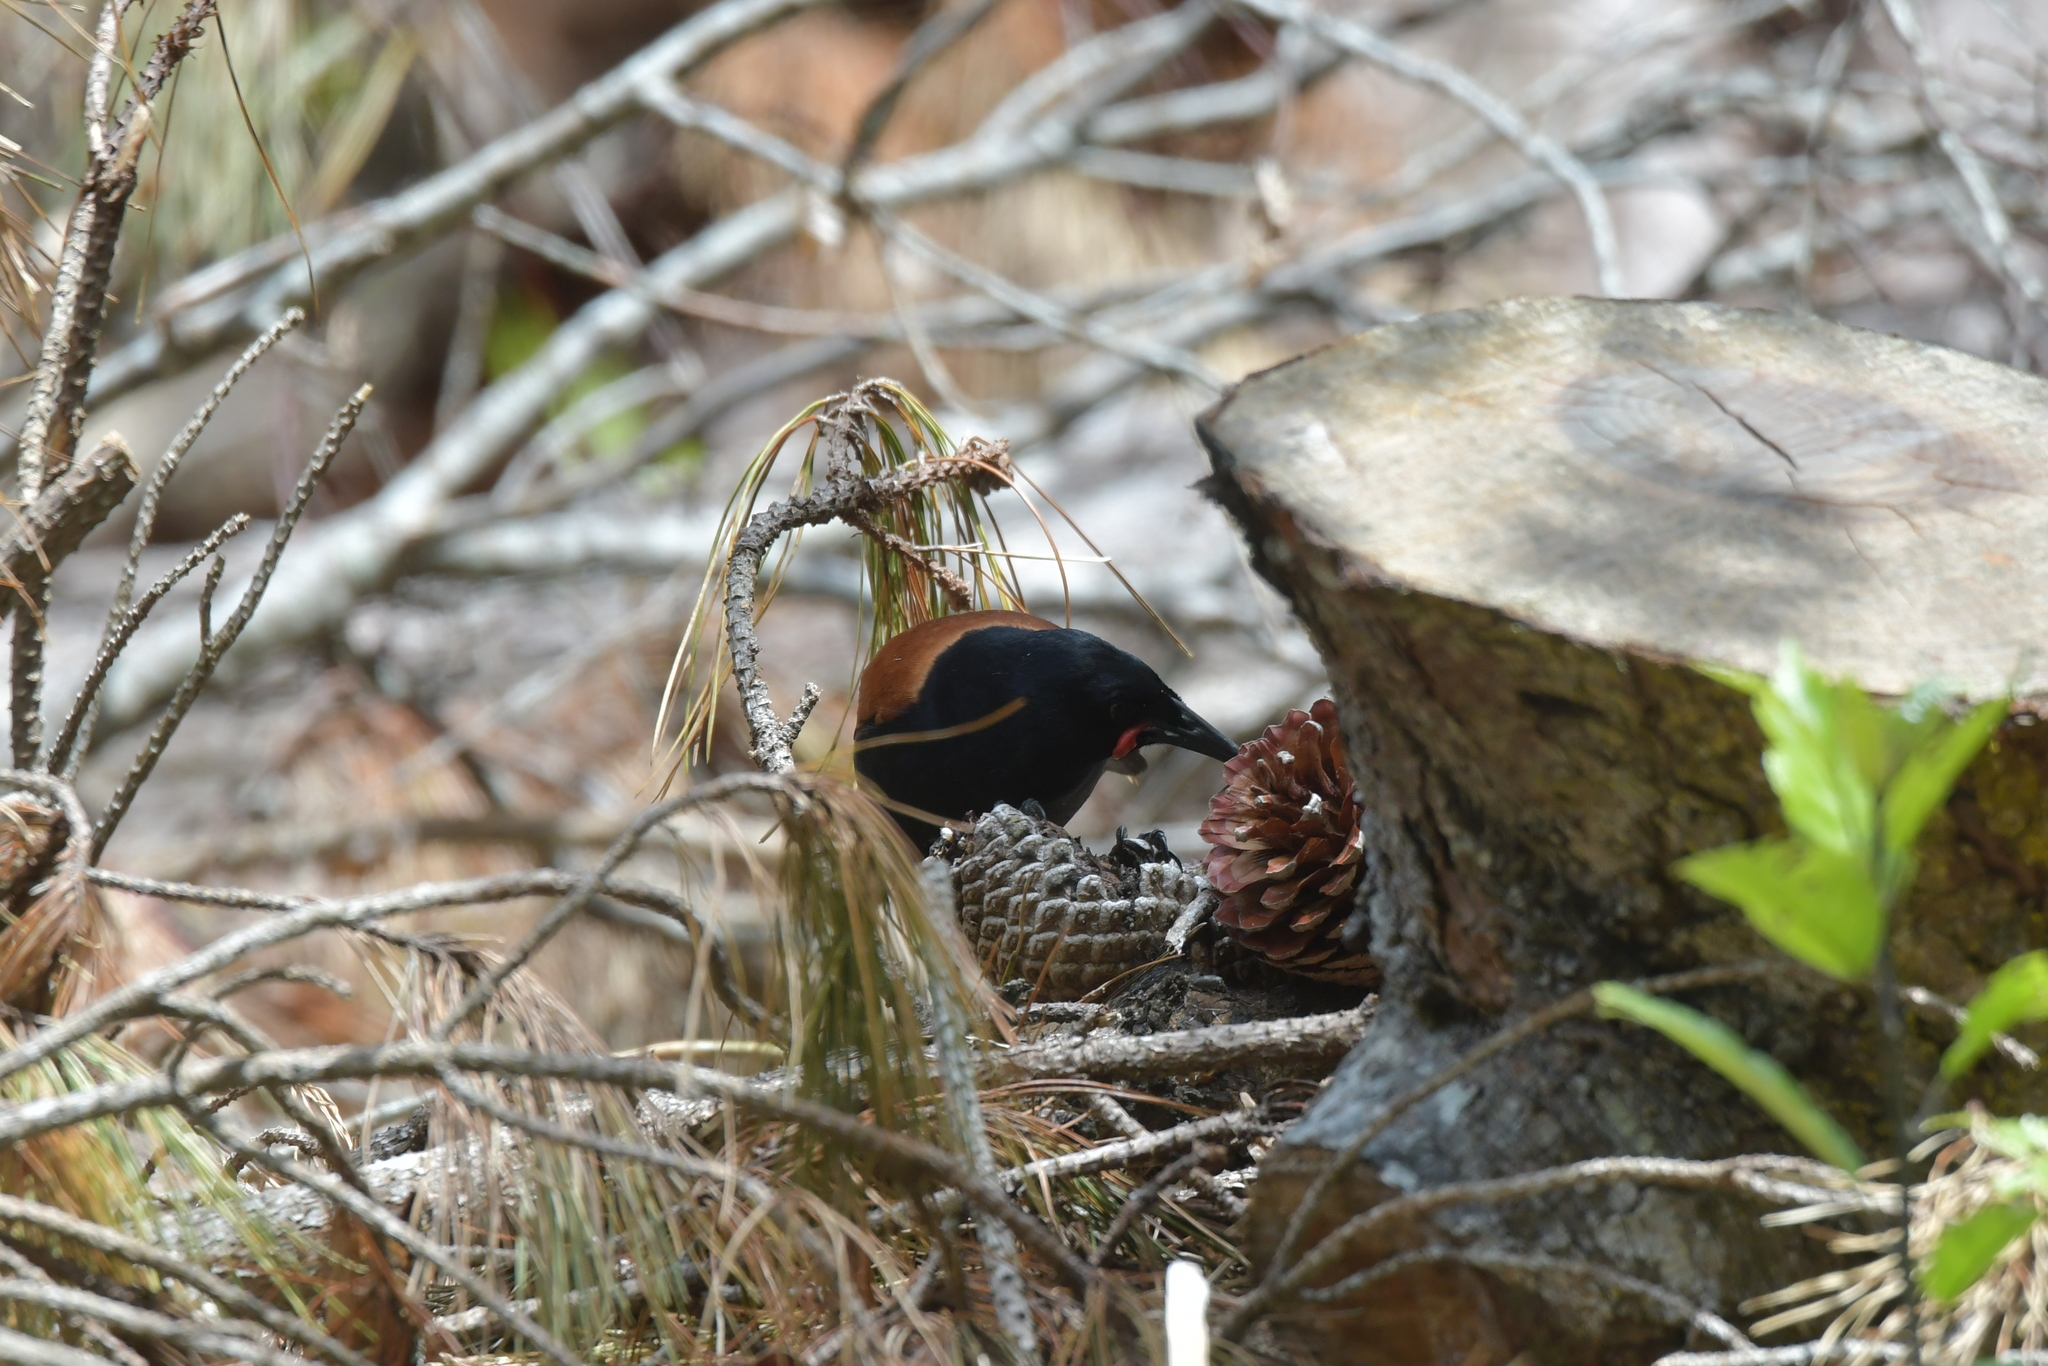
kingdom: Animalia
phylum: Chordata
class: Aves
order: Passeriformes
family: Callaeatidae
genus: Philesturnus
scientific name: Philesturnus carunculatus
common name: South island saddleback
